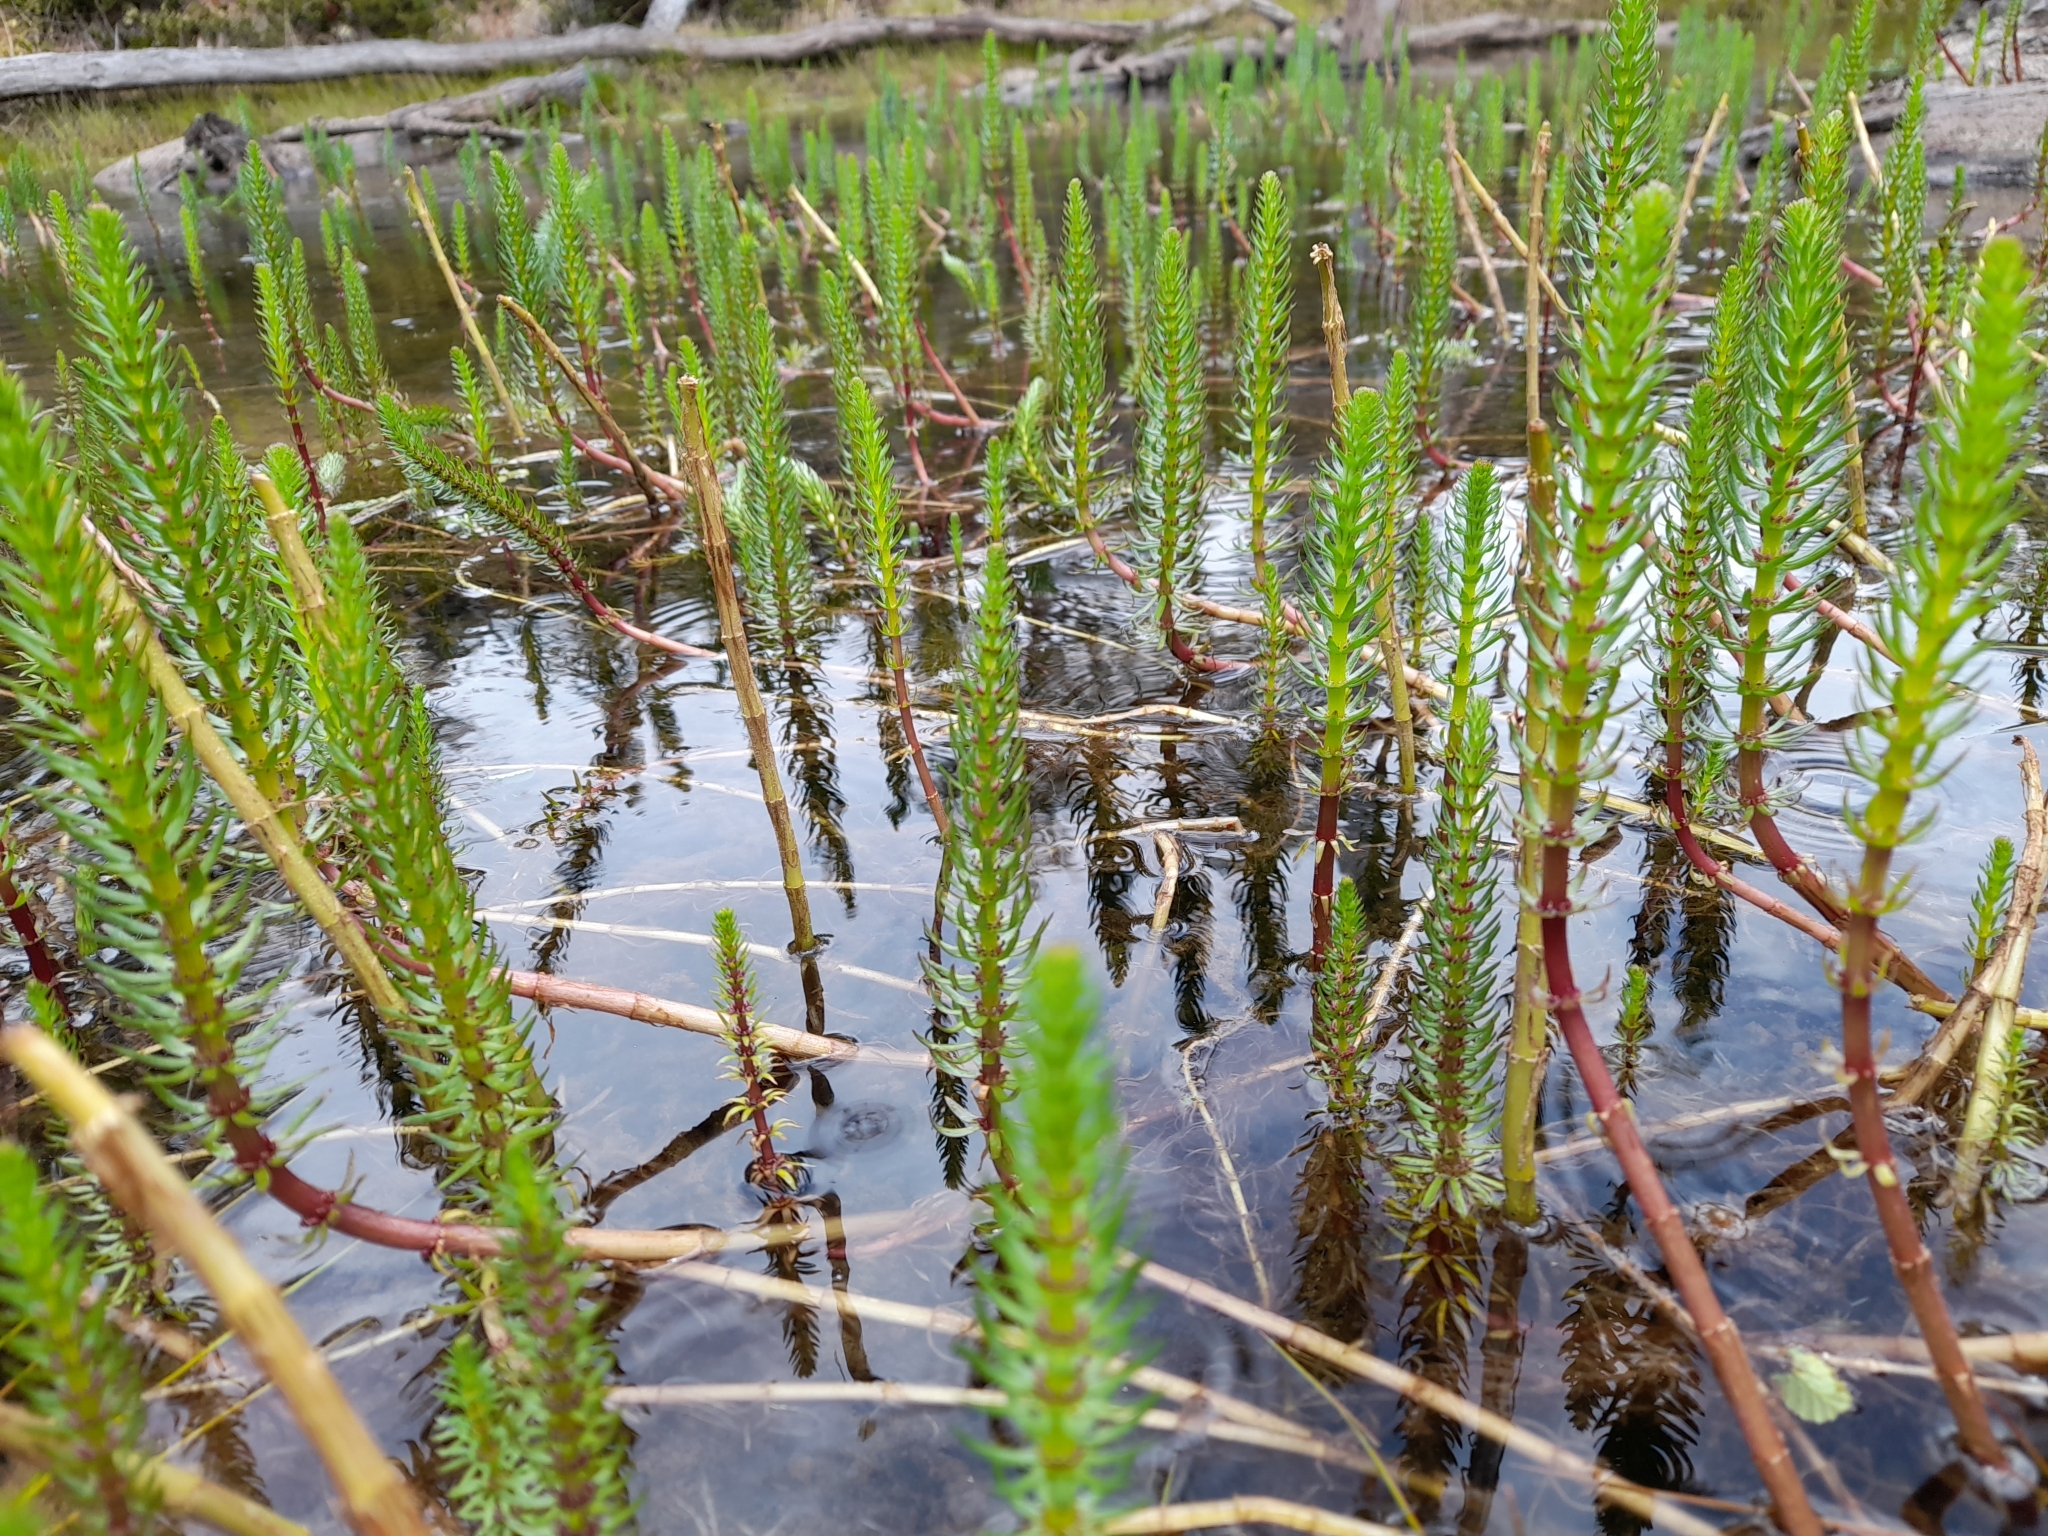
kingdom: Plantae
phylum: Tracheophyta
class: Magnoliopsida
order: Lamiales
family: Plantaginaceae
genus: Hippuris
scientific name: Hippuris vulgaris
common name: Mare's-tail
